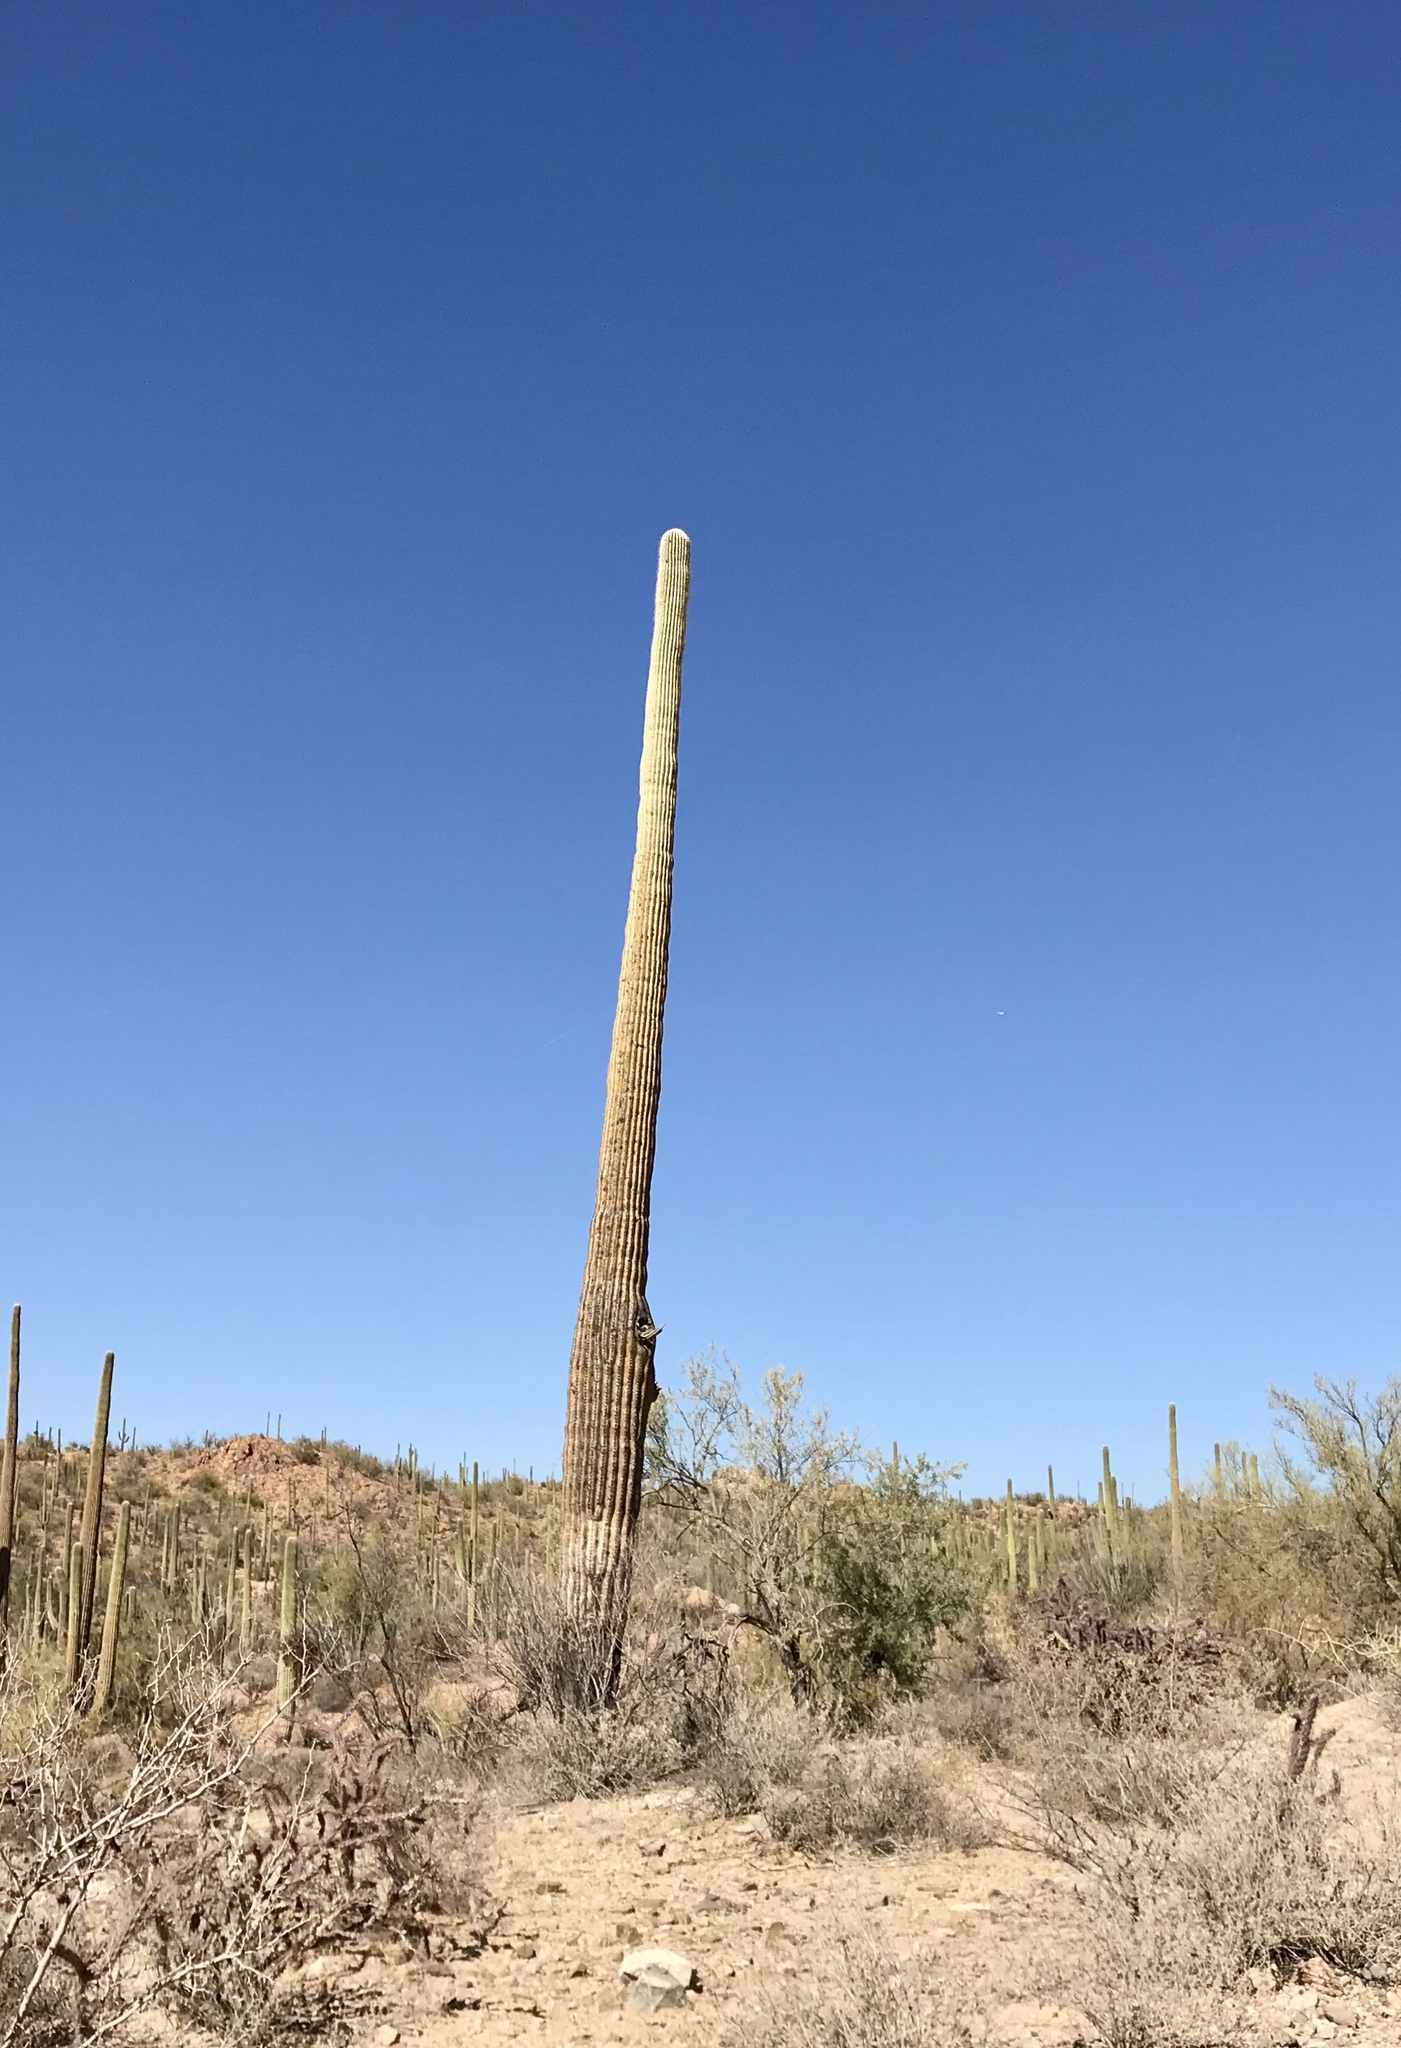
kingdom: Plantae
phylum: Tracheophyta
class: Magnoliopsida
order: Caryophyllales
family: Cactaceae
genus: Carnegiea
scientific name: Carnegiea gigantea
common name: Saguaro
